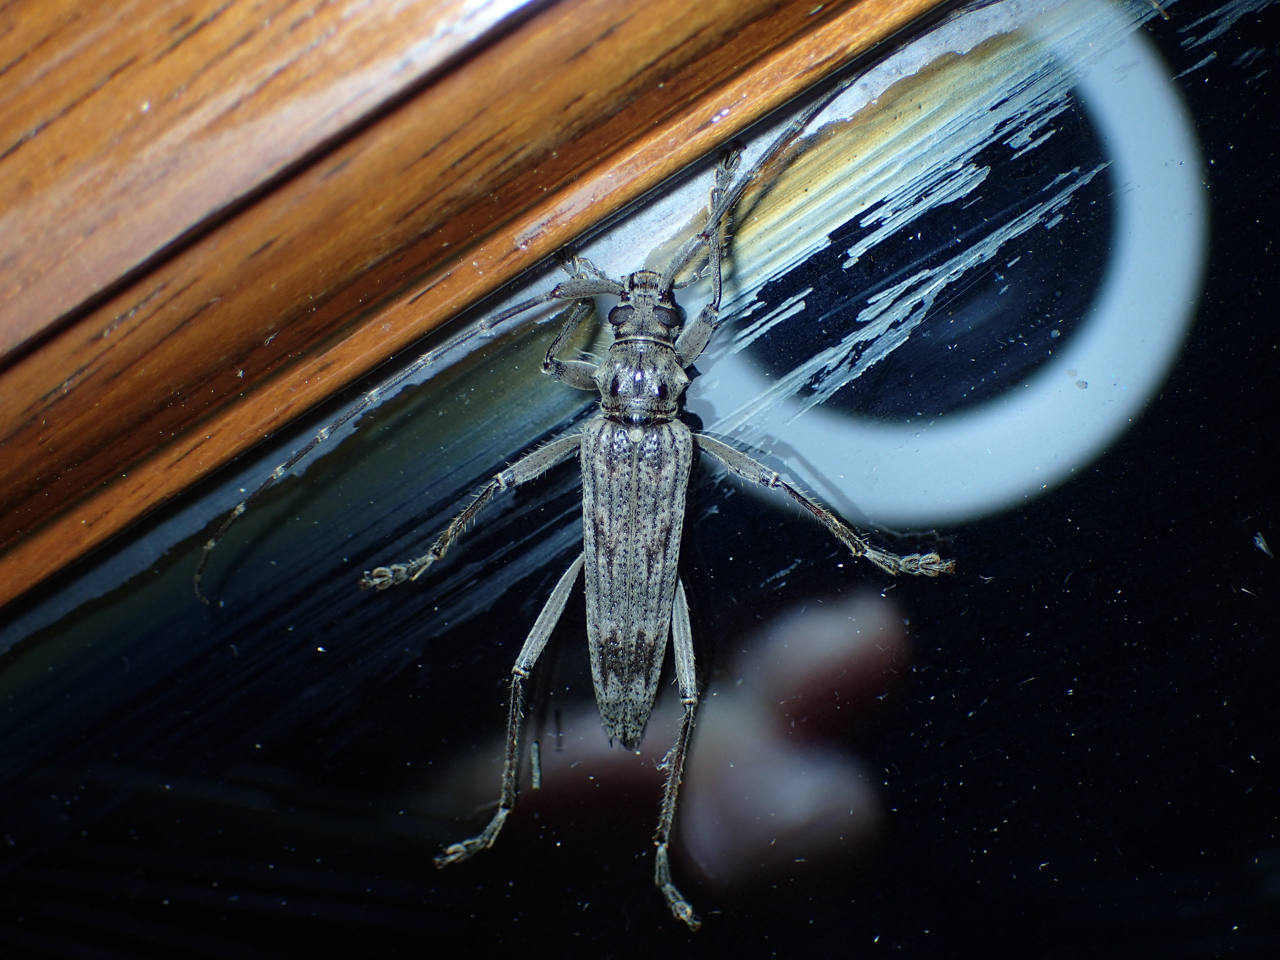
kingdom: Animalia
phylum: Arthropoda
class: Insecta
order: Coleoptera
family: Cerambycidae
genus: Elytrimitatrix
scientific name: Elytrimitatrix undata
